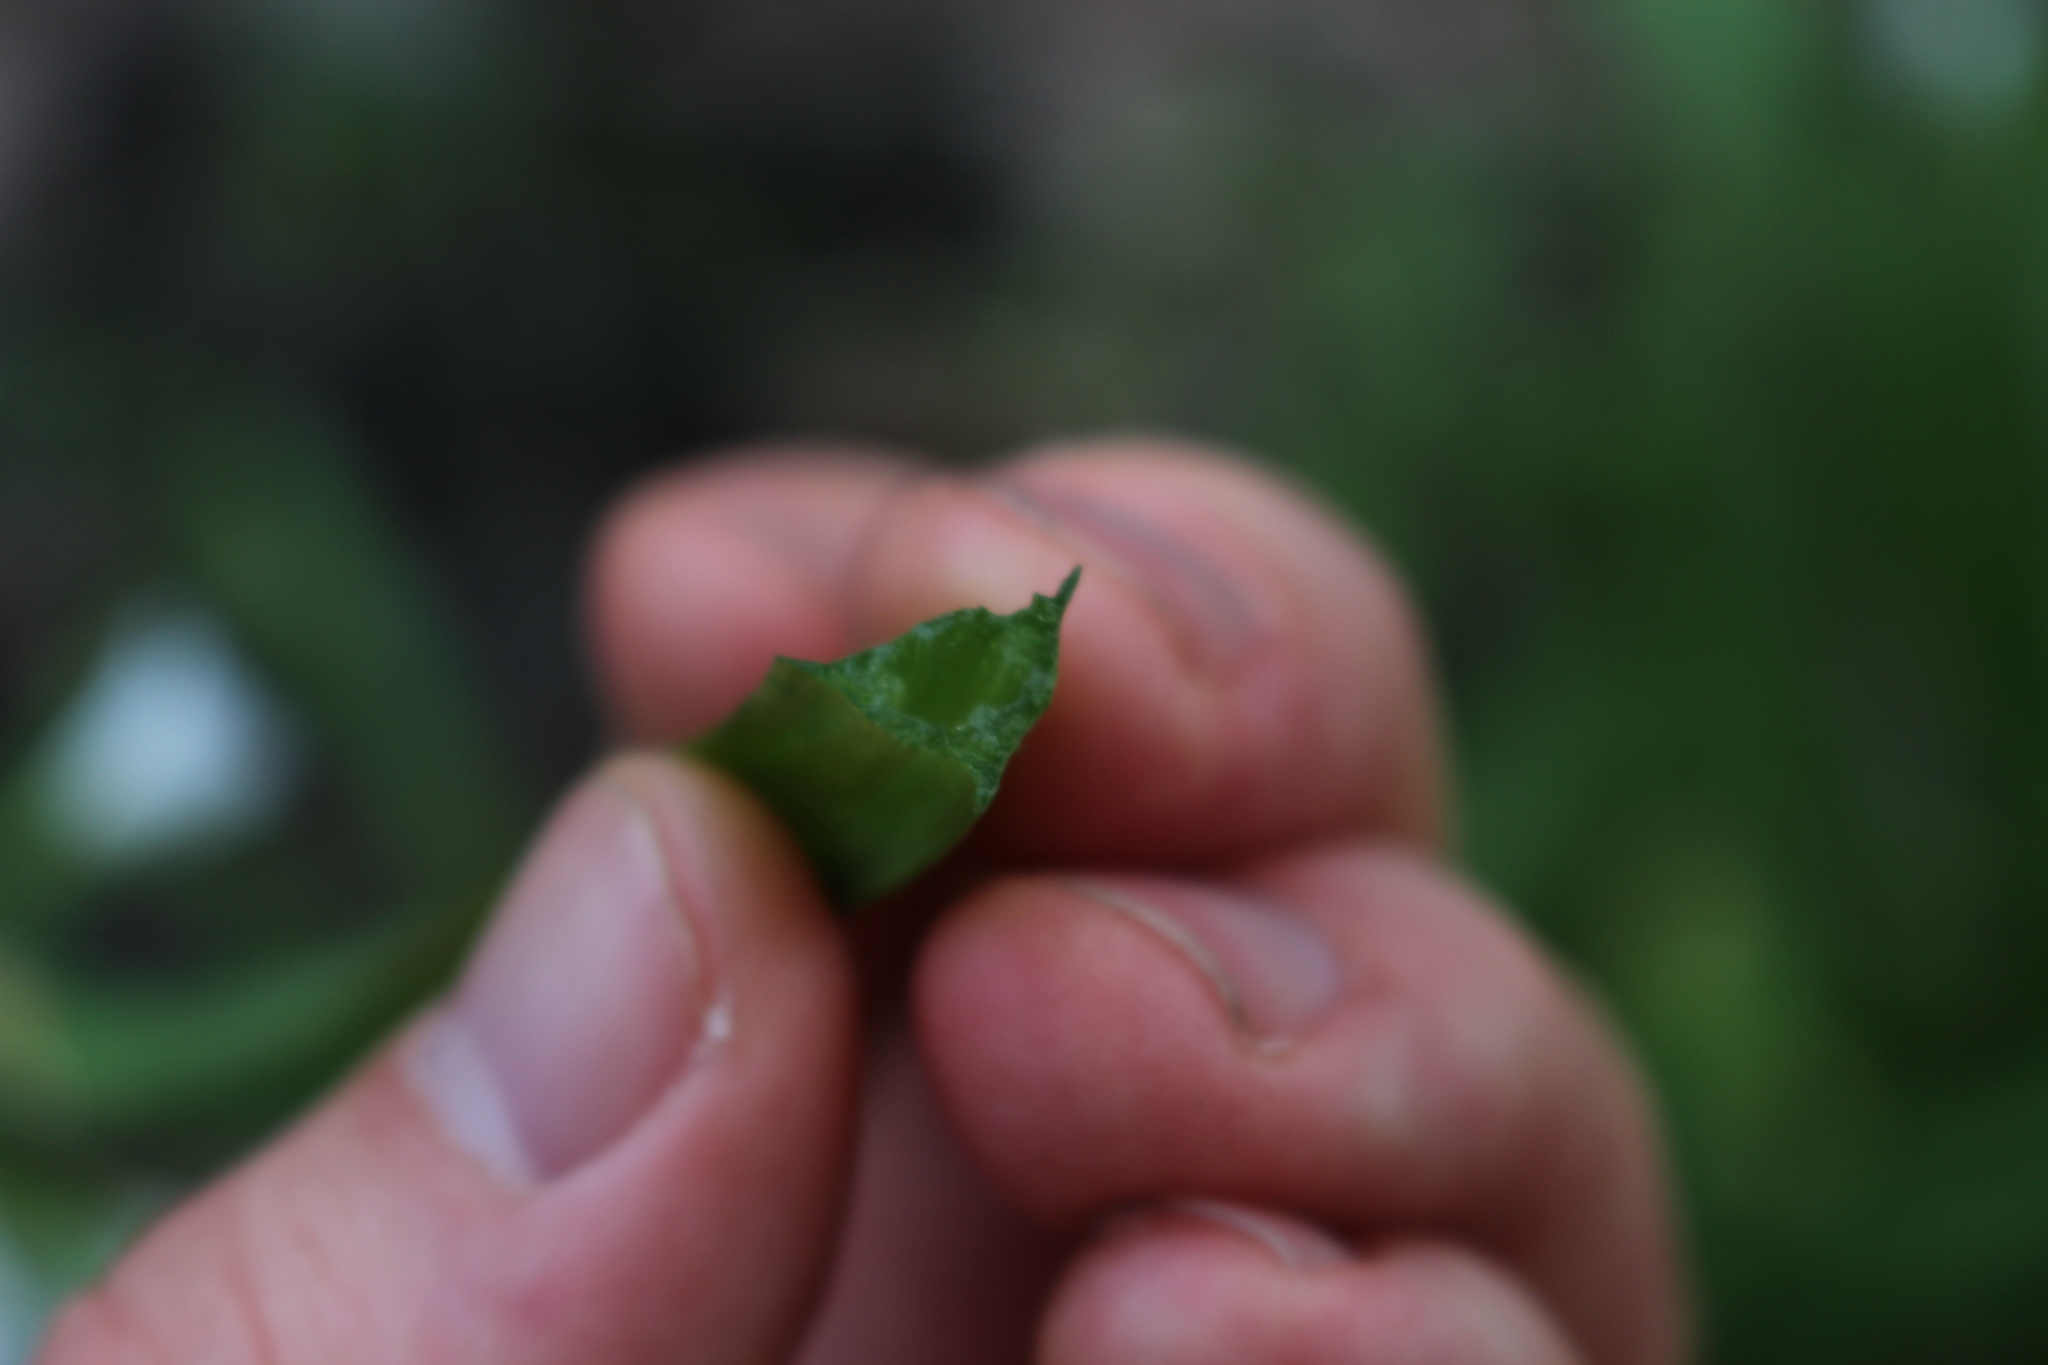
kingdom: Plantae
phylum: Tracheophyta
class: Liliopsida
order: Asparagales
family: Amaryllidaceae
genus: Allium
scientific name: Allium triquetrum
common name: Three-cornered garlic
